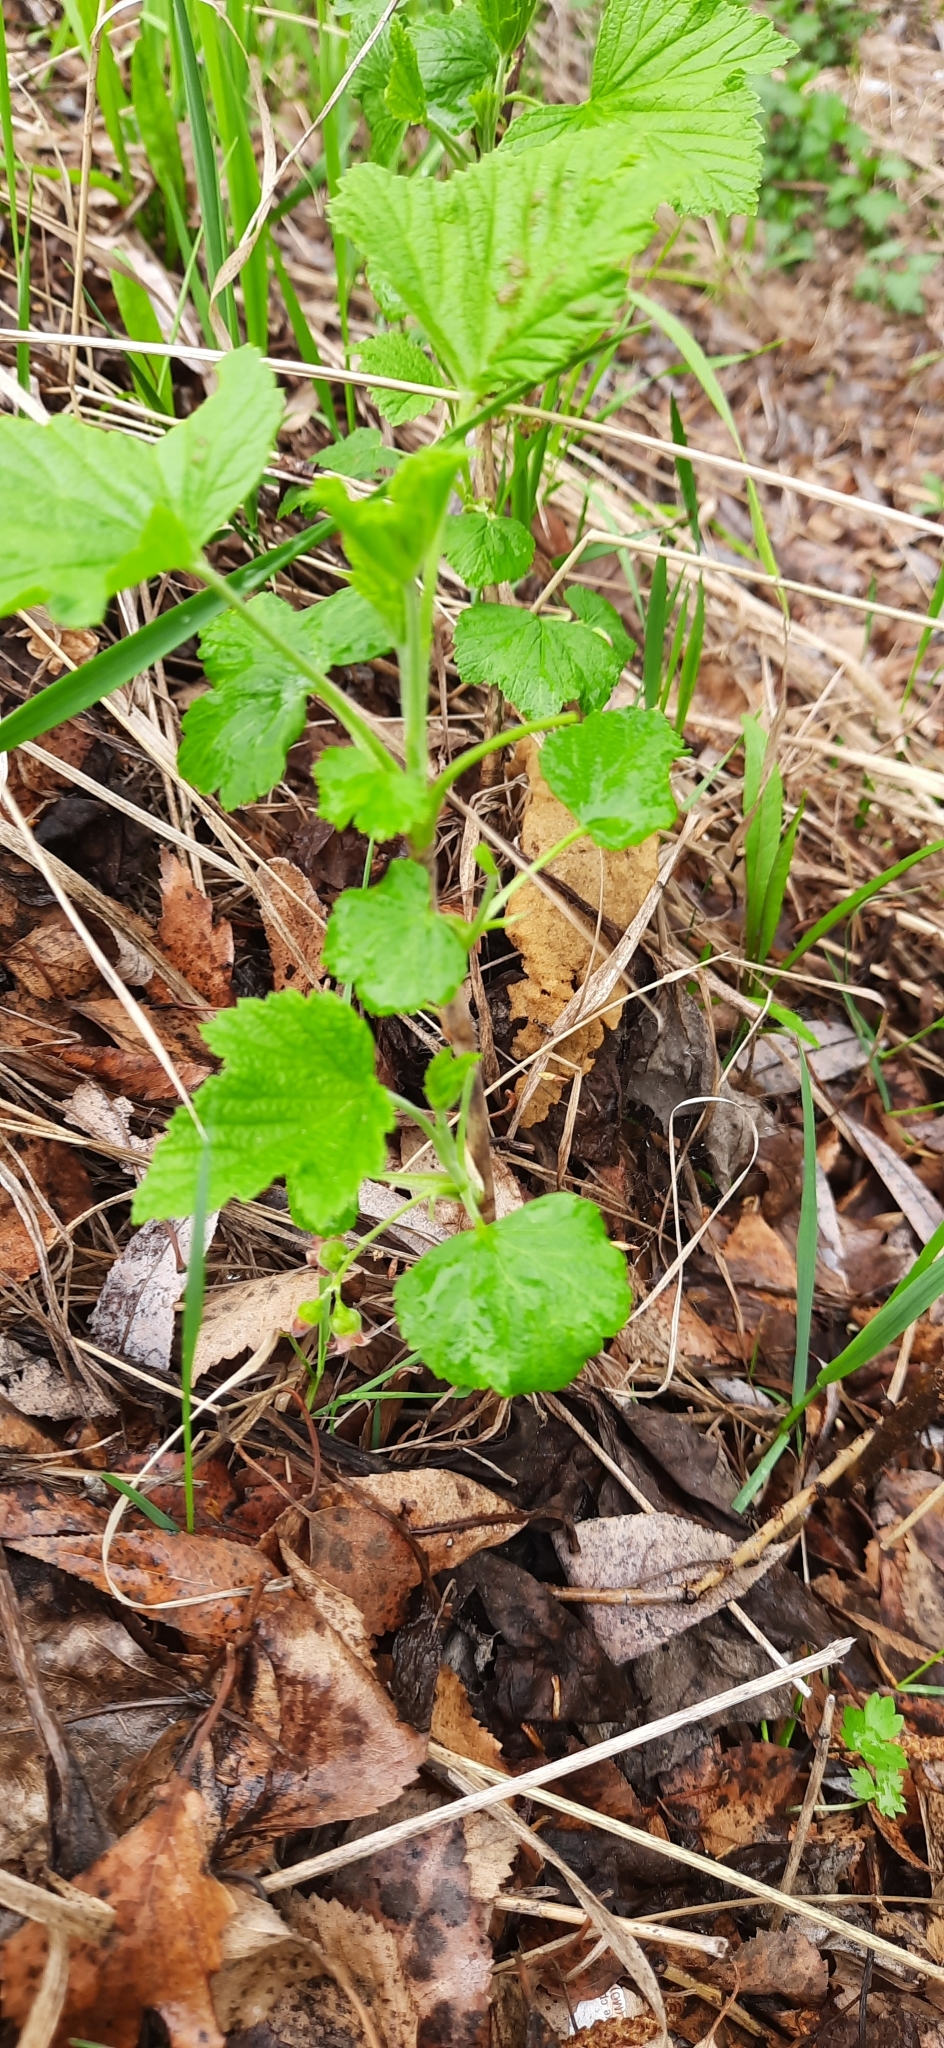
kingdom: Plantae
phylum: Tracheophyta
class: Magnoliopsida
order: Saxifragales
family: Grossulariaceae
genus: Ribes
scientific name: Ribes nigrum
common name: Black currant
